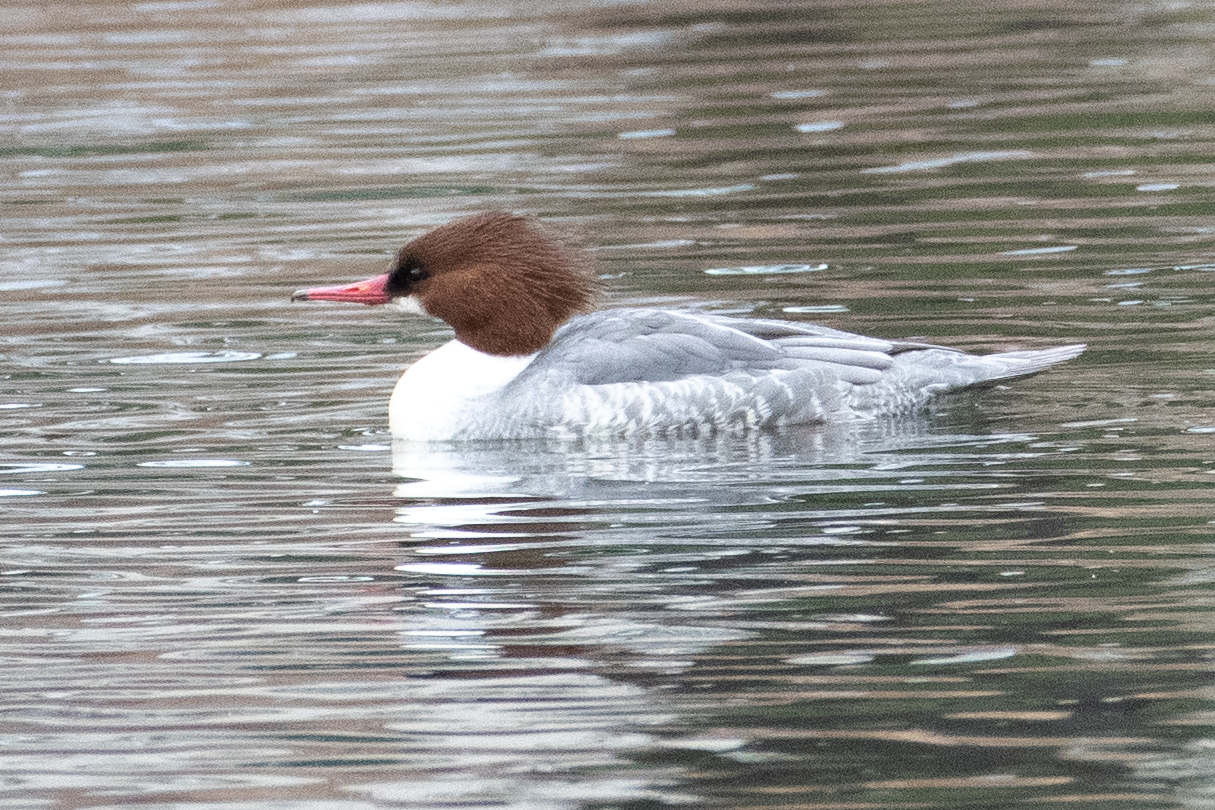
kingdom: Animalia
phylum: Chordata
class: Aves
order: Anseriformes
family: Anatidae
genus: Mergus
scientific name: Mergus merganser
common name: Common merganser
